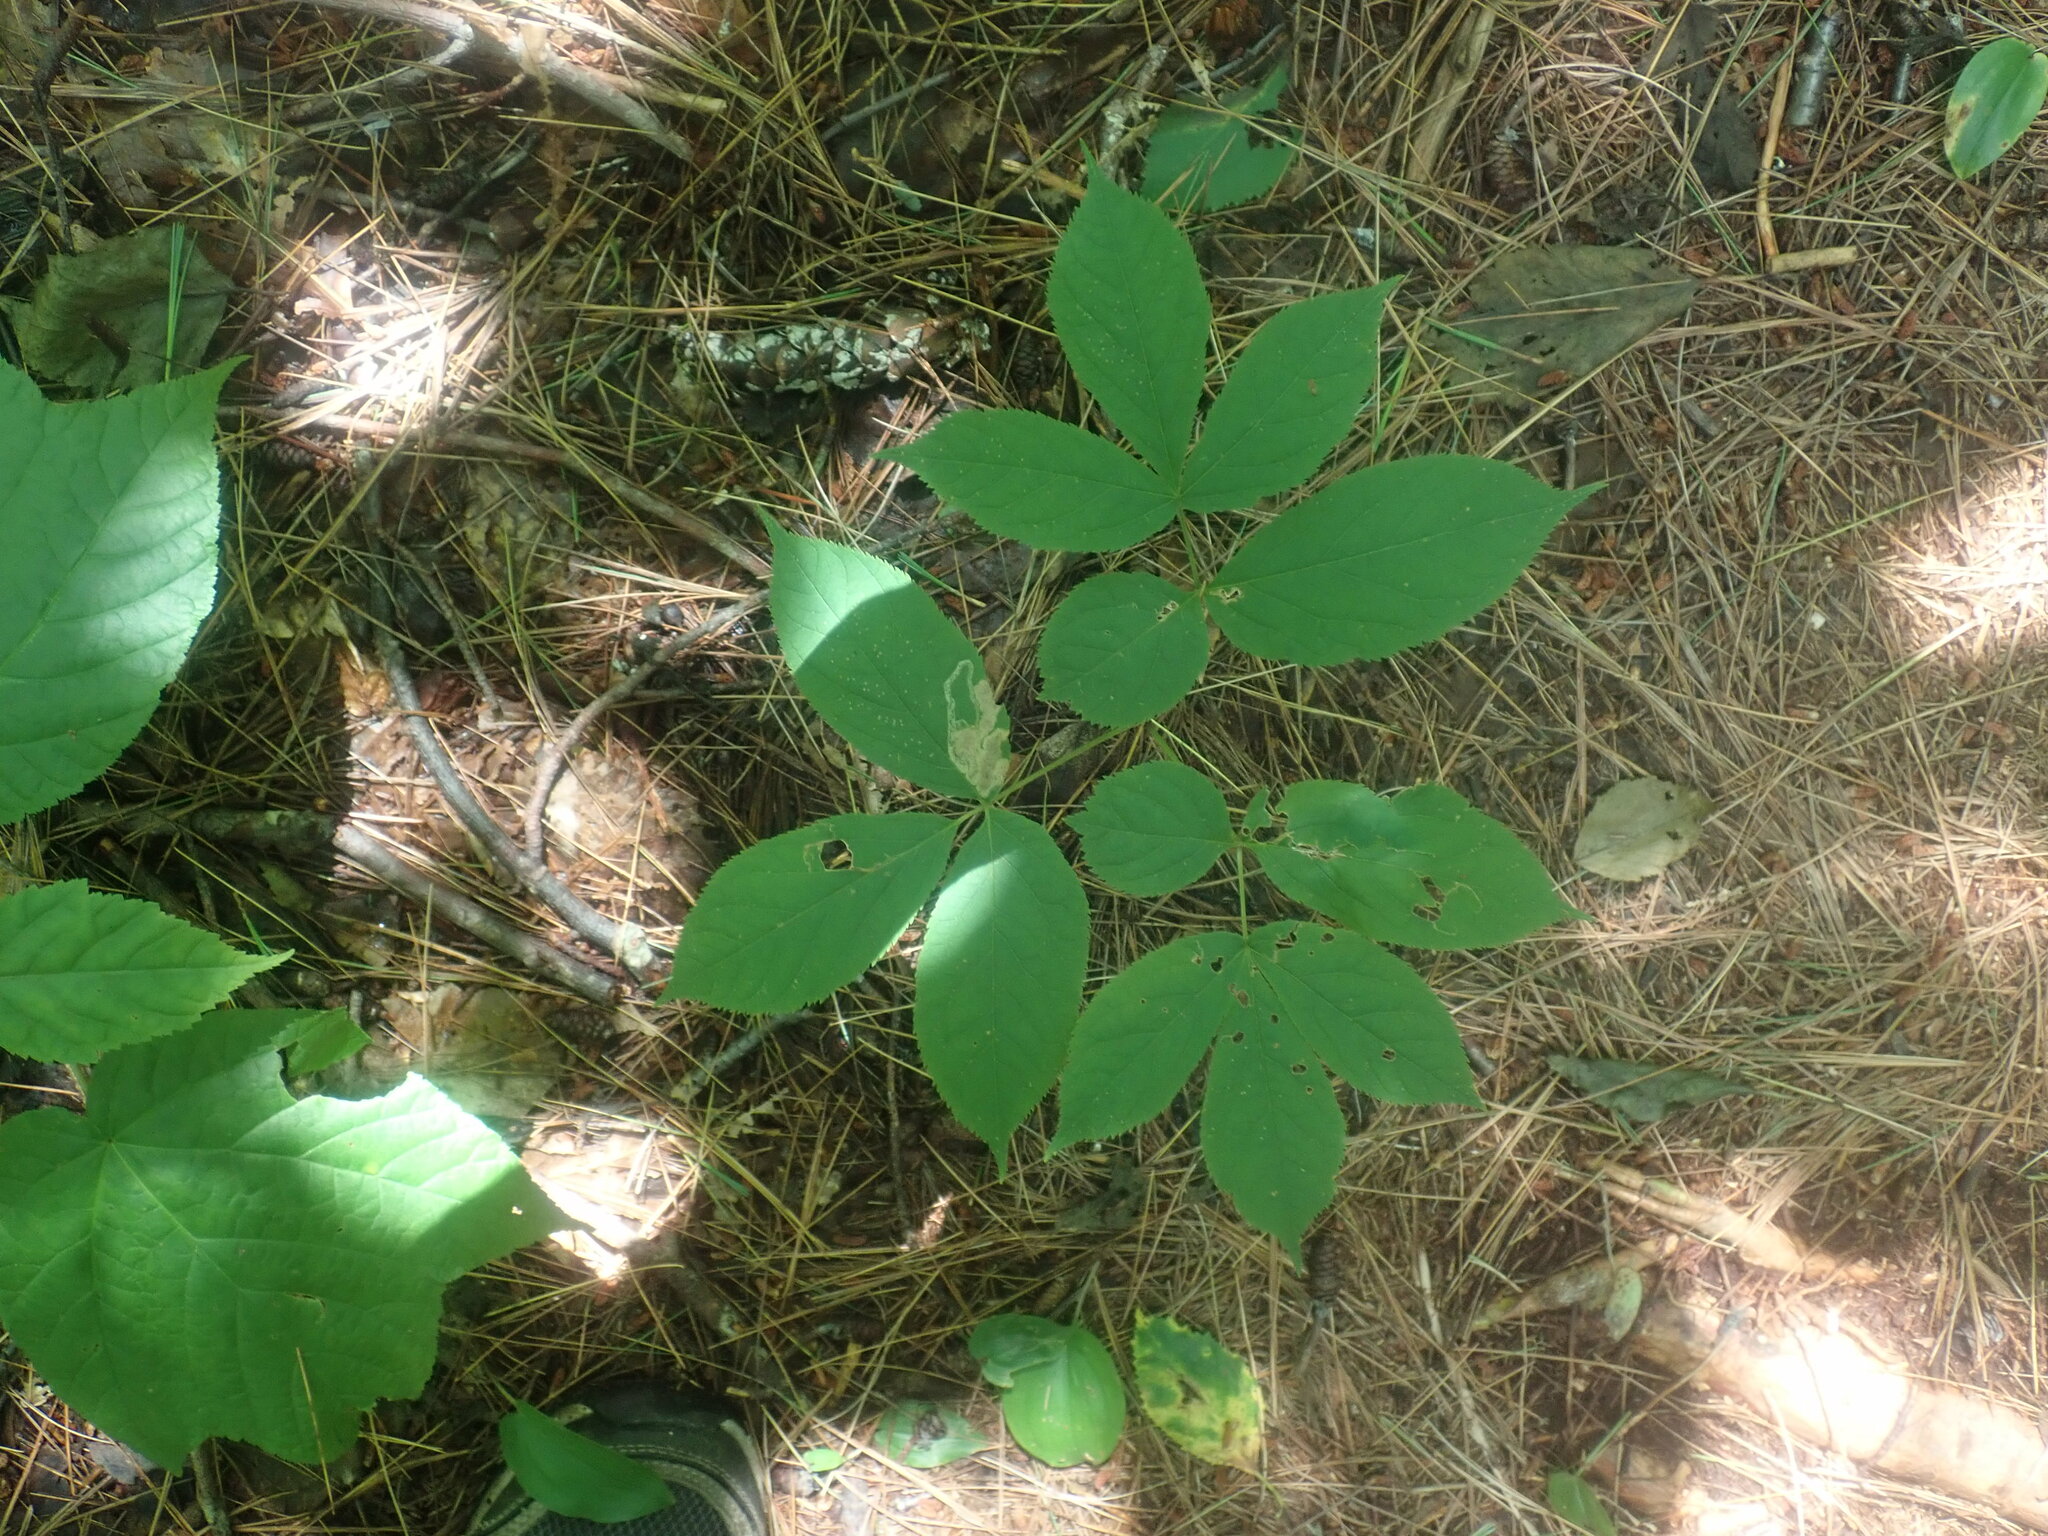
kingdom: Plantae
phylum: Tracheophyta
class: Magnoliopsida
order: Apiales
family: Araliaceae
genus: Aralia
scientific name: Aralia nudicaulis
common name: Wild sarsaparilla
